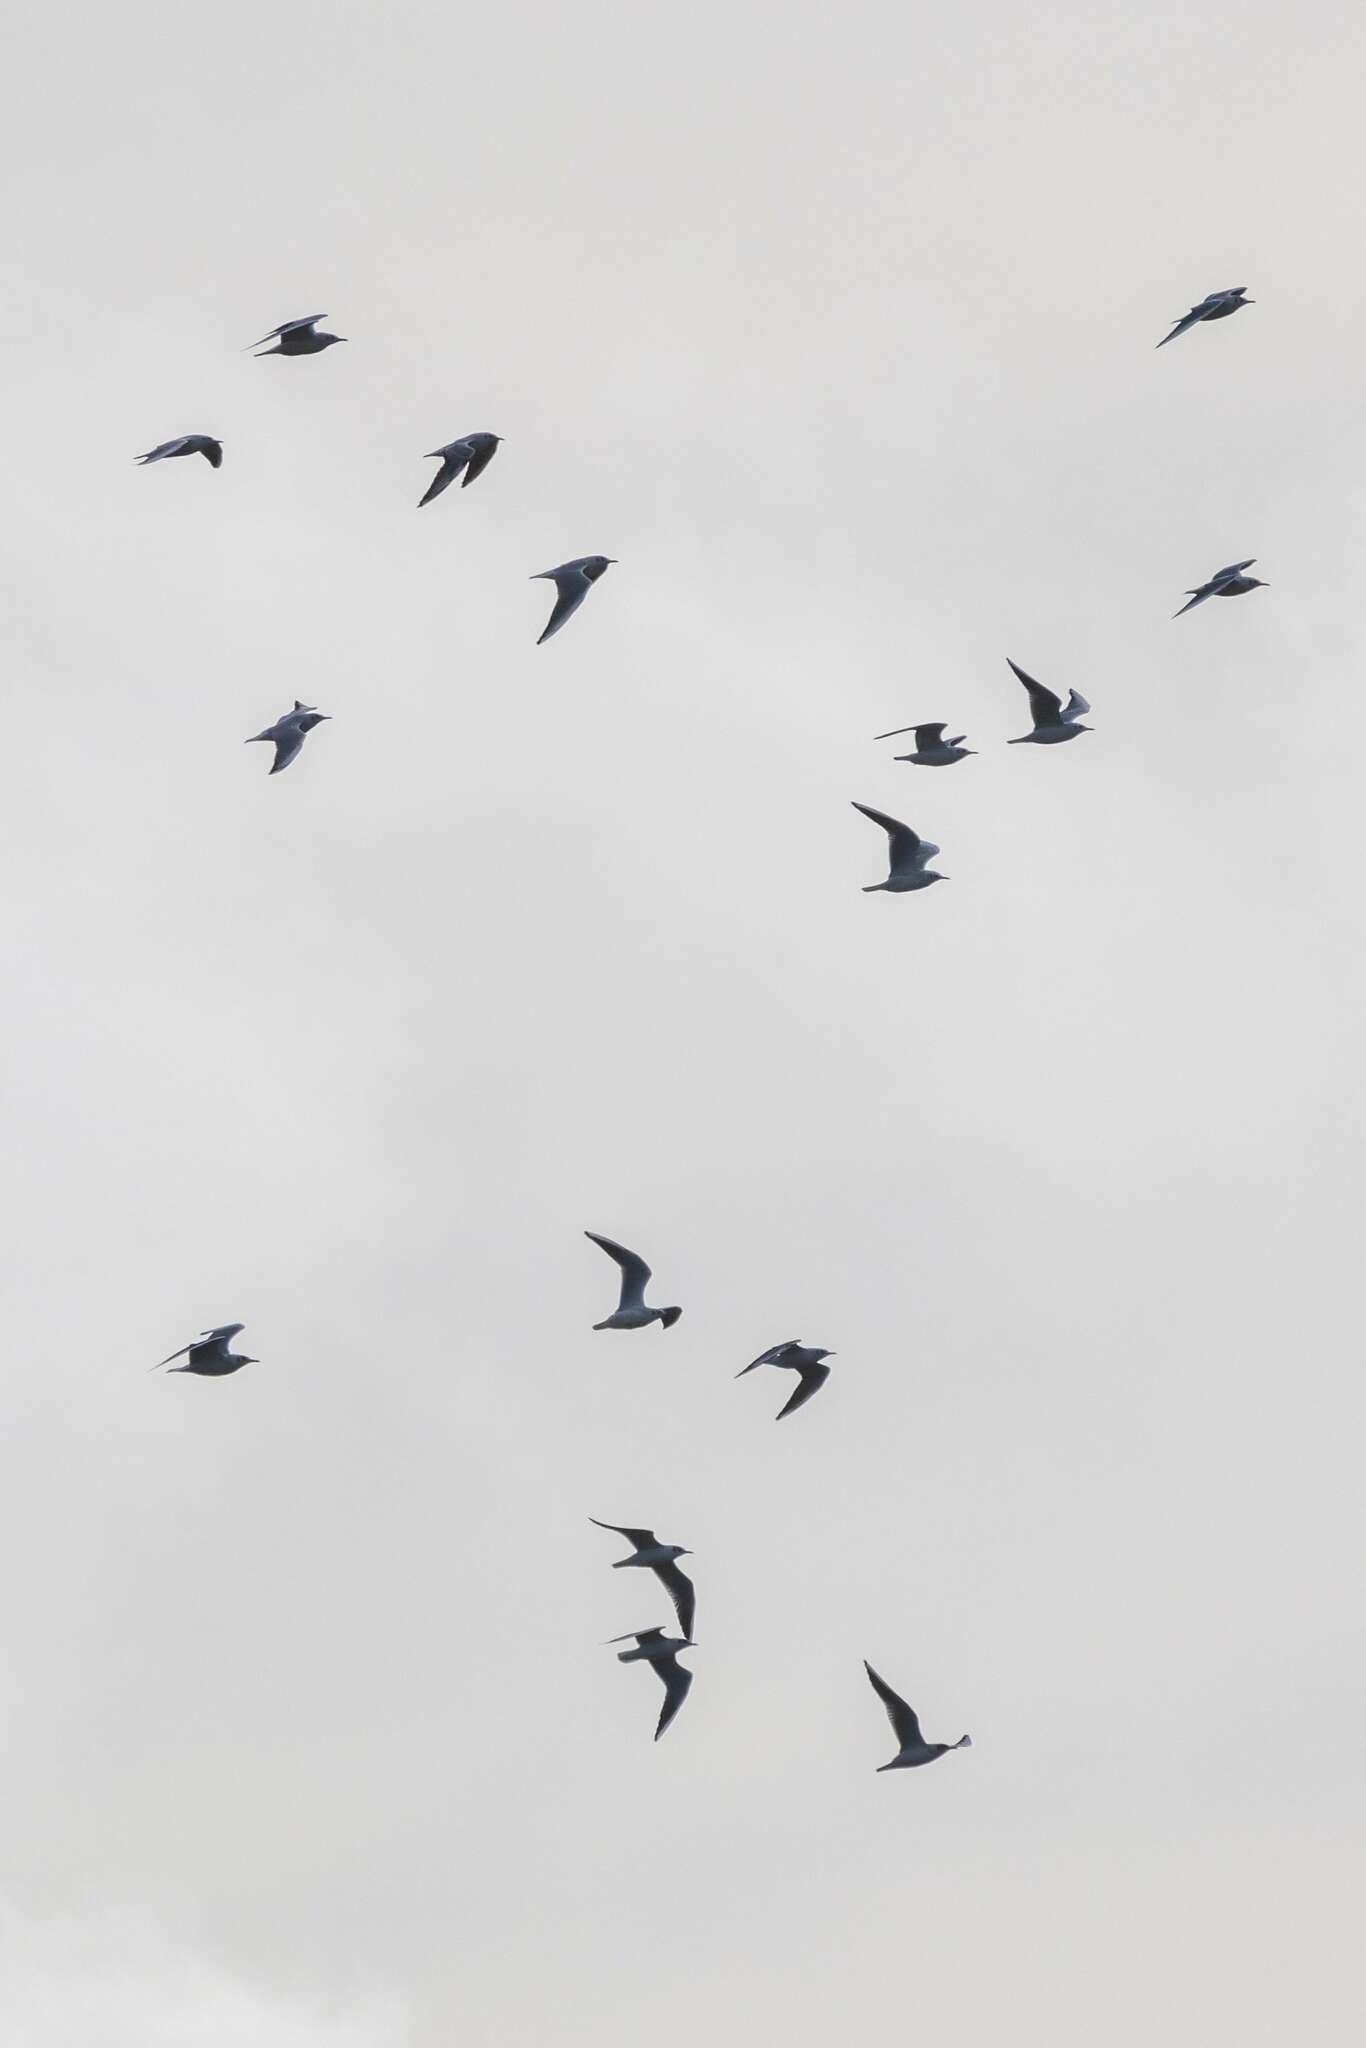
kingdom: Animalia
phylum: Chordata
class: Aves
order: Charadriiformes
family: Laridae
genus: Chroicocephalus
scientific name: Chroicocephalus ridibundus
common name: Black-headed gull
